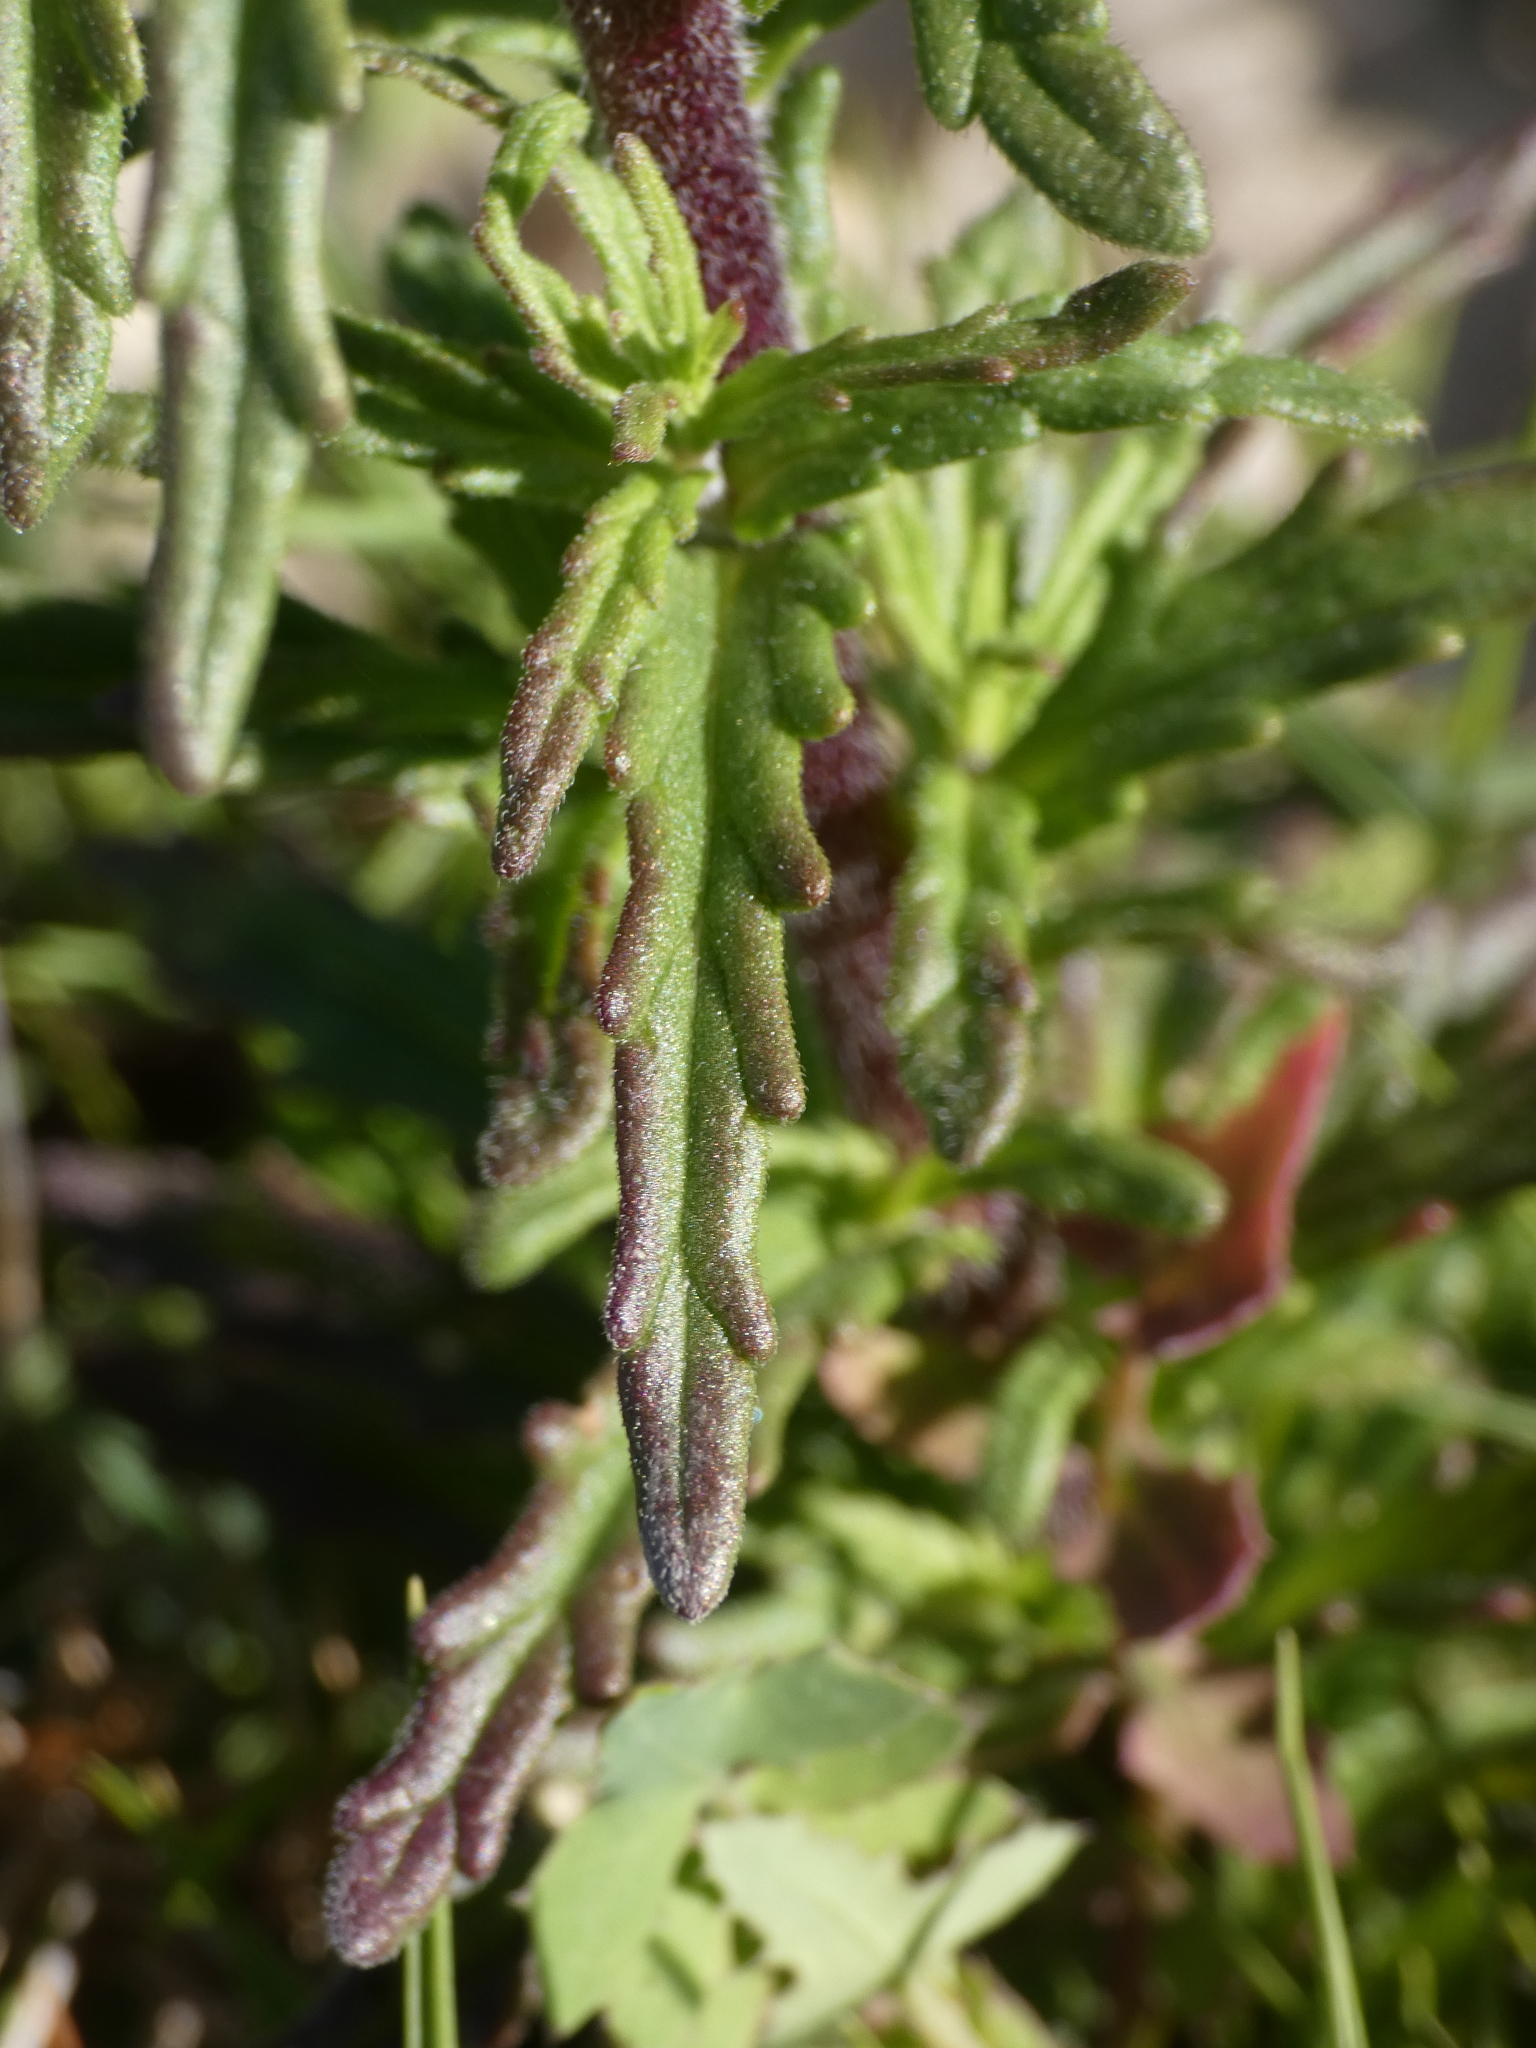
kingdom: Plantae
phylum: Tracheophyta
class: Magnoliopsida
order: Lamiales
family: Orobanchaceae
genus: Bellardia
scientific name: Bellardia trixago
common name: Mediterranean lineseed
